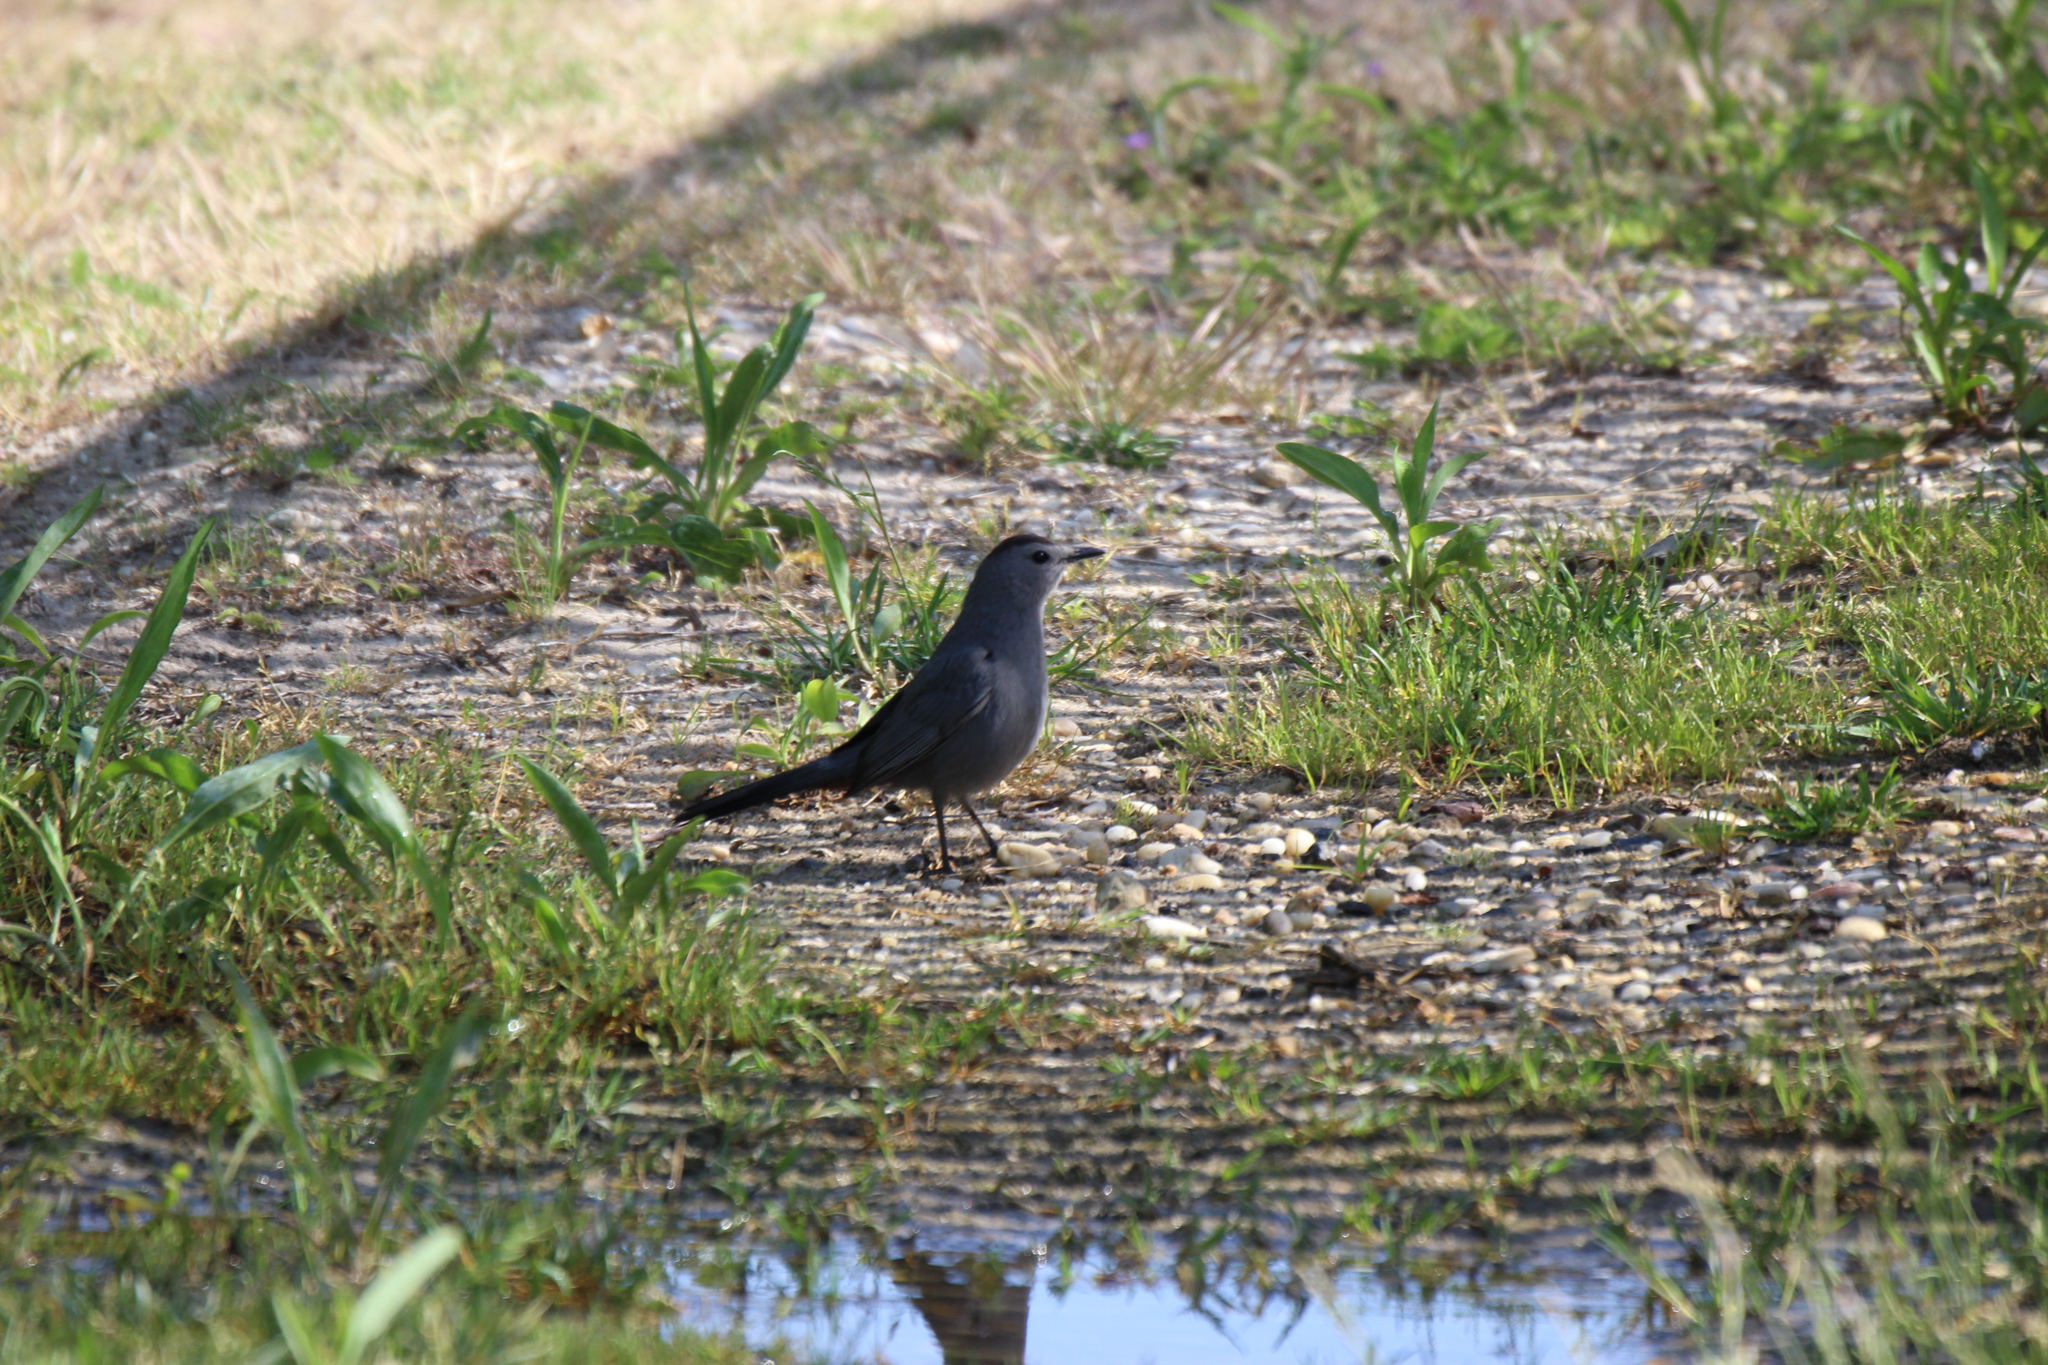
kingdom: Animalia
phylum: Chordata
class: Aves
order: Passeriformes
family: Mimidae
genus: Dumetella
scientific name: Dumetella carolinensis
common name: Gray catbird
